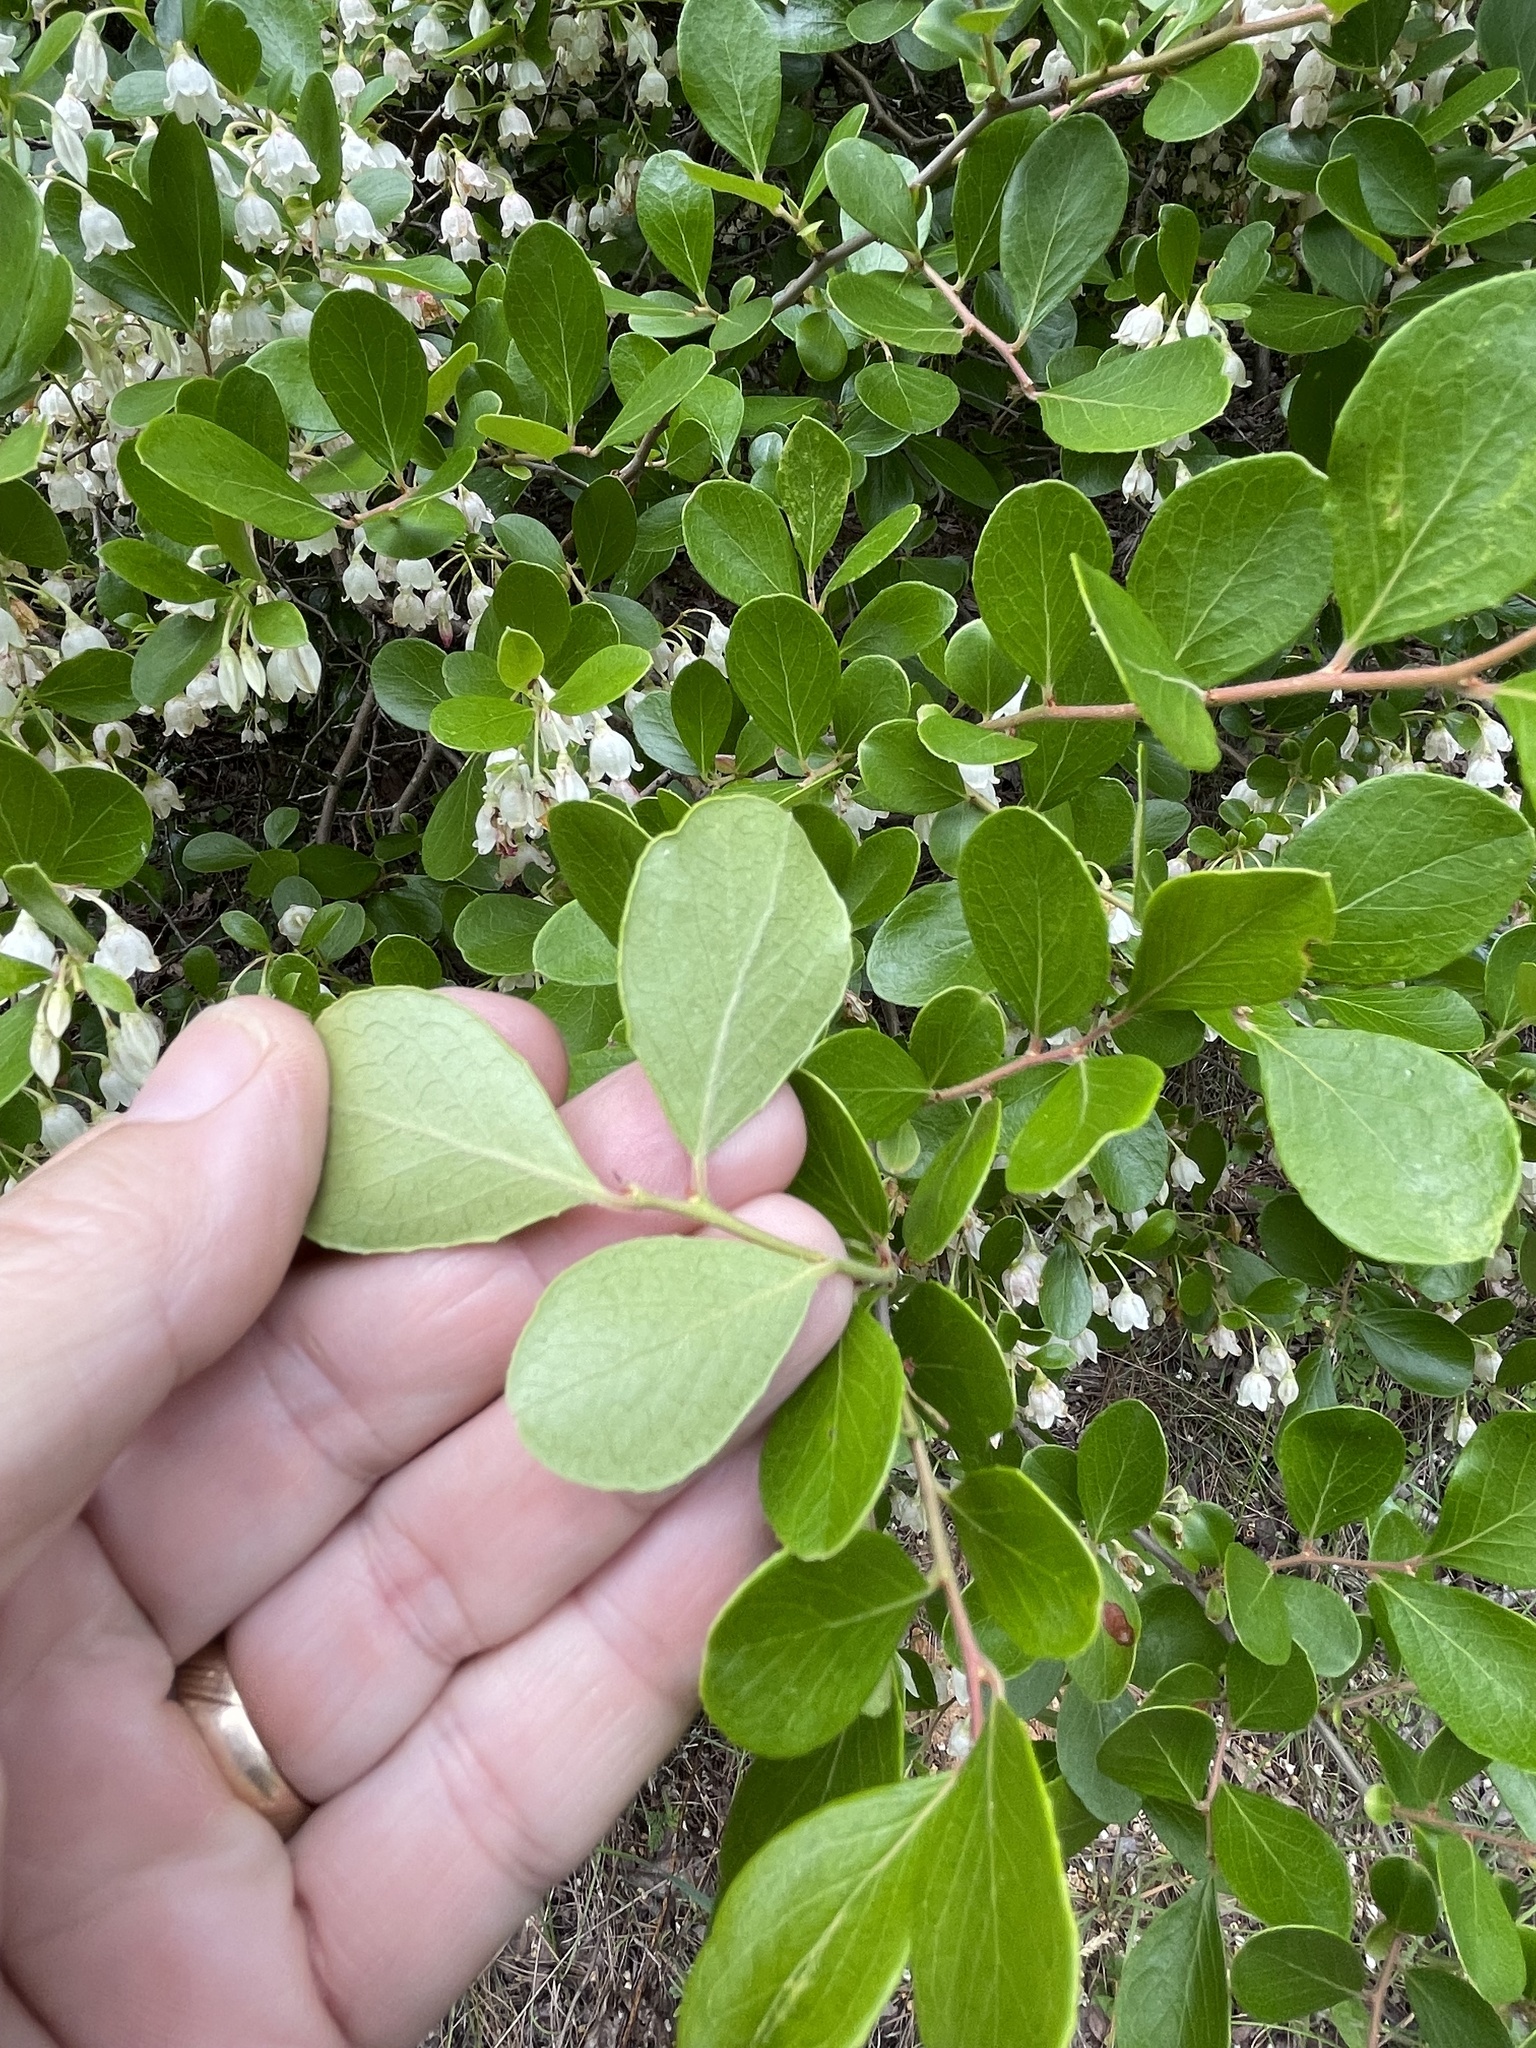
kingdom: Plantae
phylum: Tracheophyta
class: Magnoliopsida
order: Ericales
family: Ericaceae
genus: Vaccinium
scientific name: Vaccinium arboreum
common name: Farkleberry
